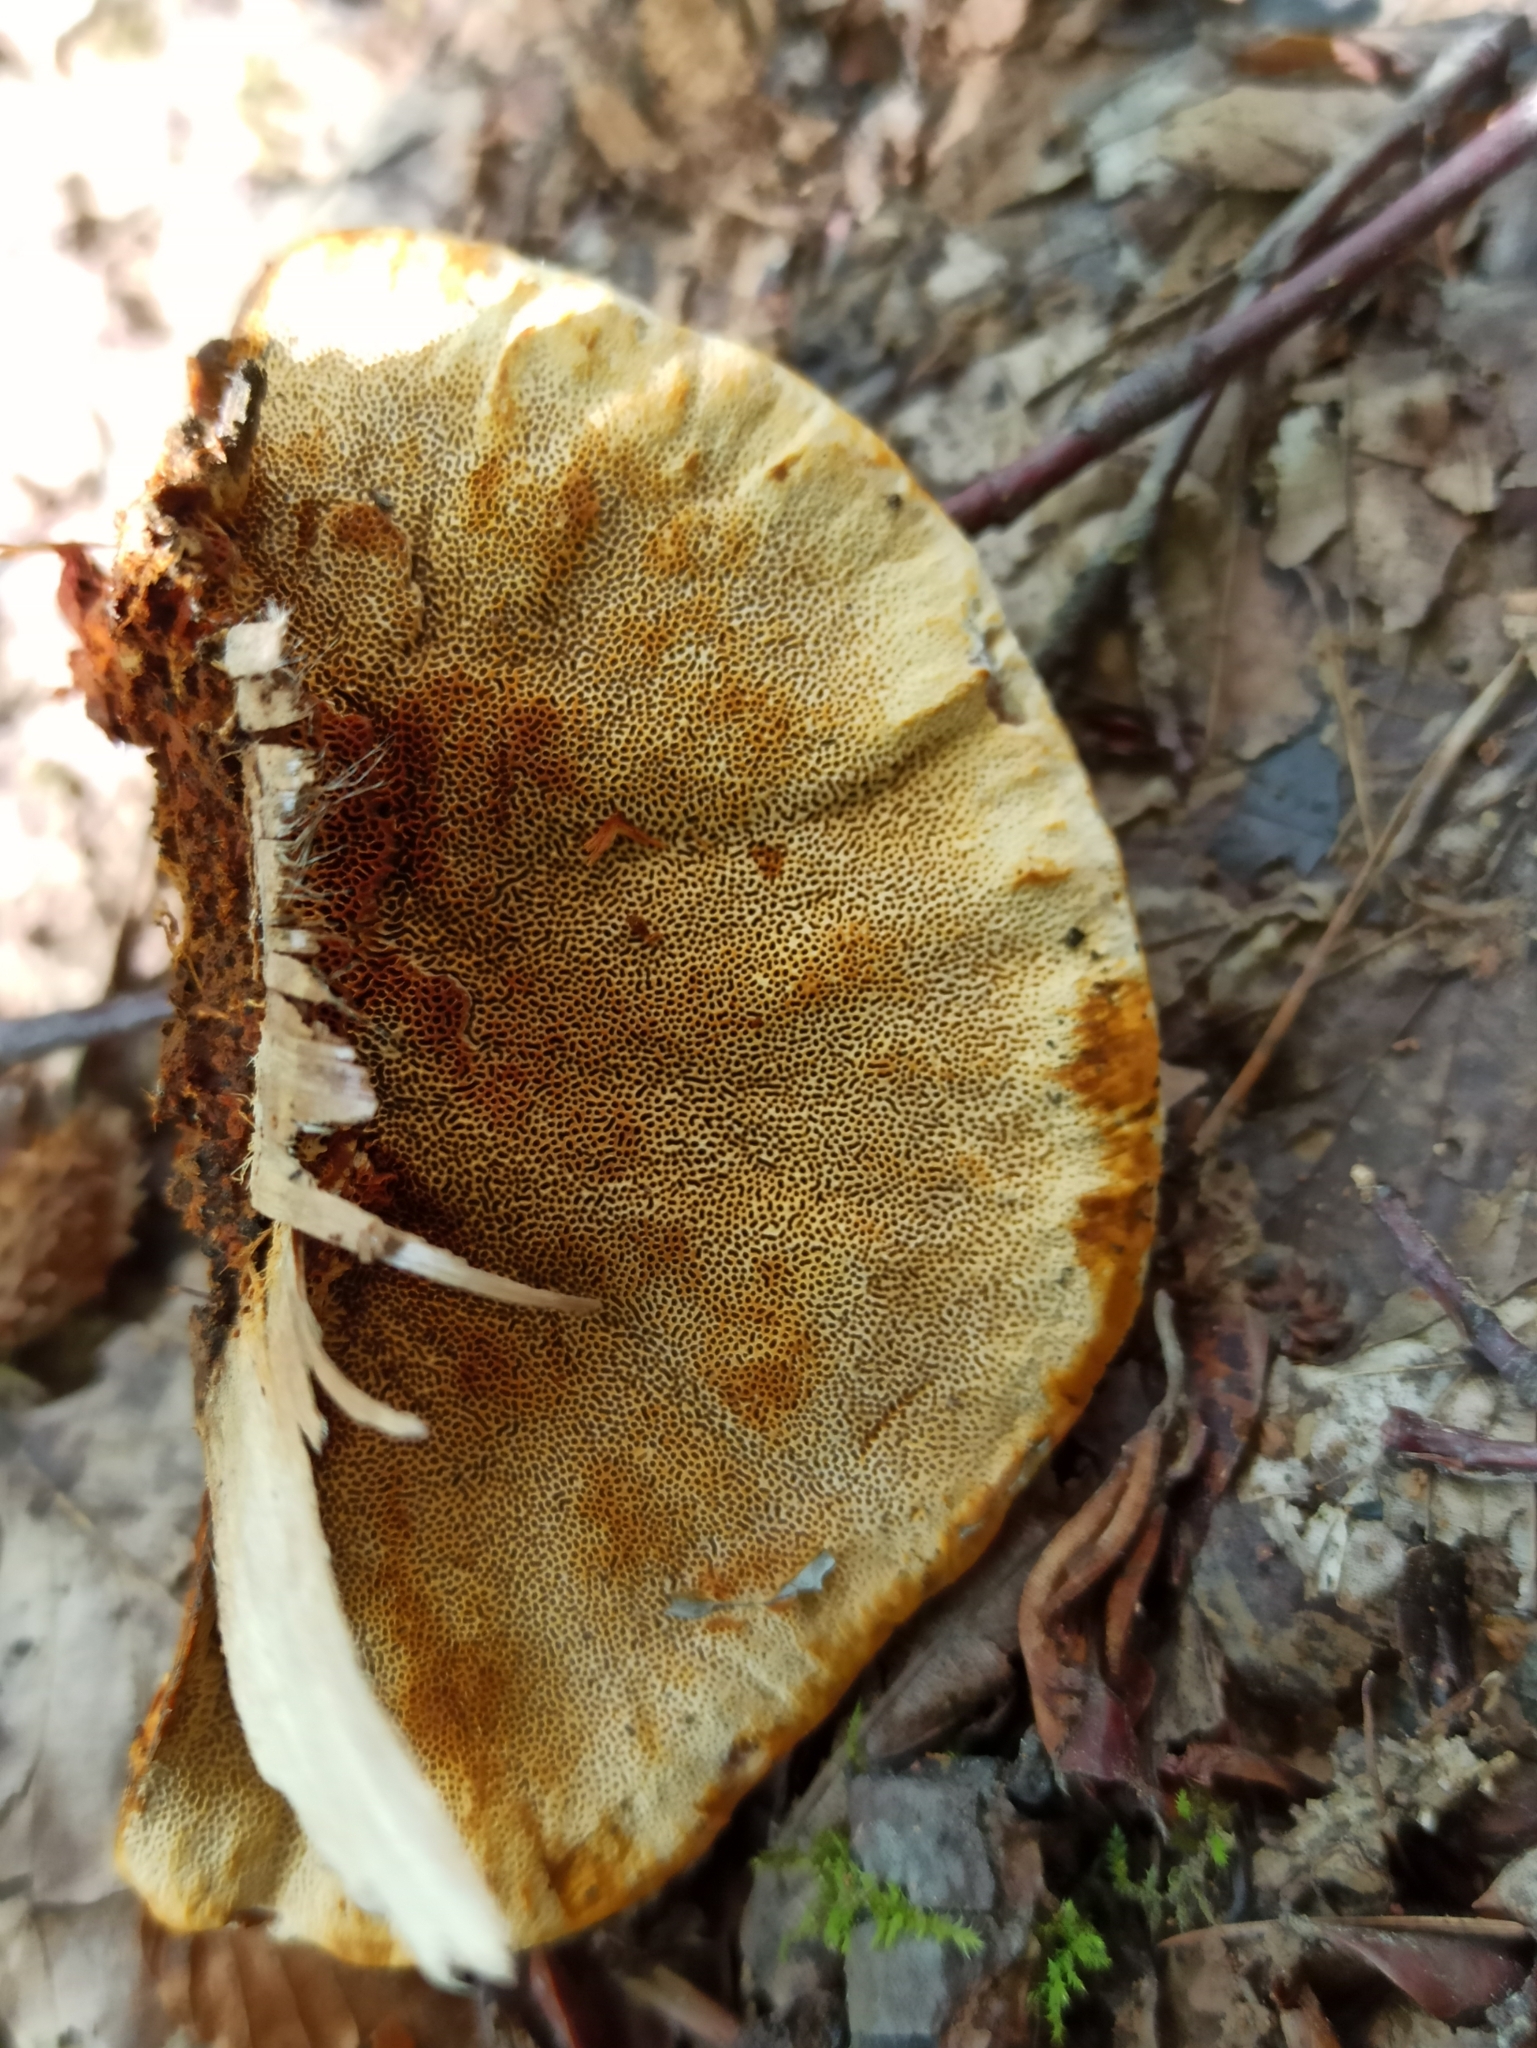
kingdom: Fungi
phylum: Basidiomycota
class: Agaricomycetes
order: Gloeophyllales
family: Gloeophyllaceae
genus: Gloeophyllum
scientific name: Gloeophyllum odoratum
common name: Anise mazegill
